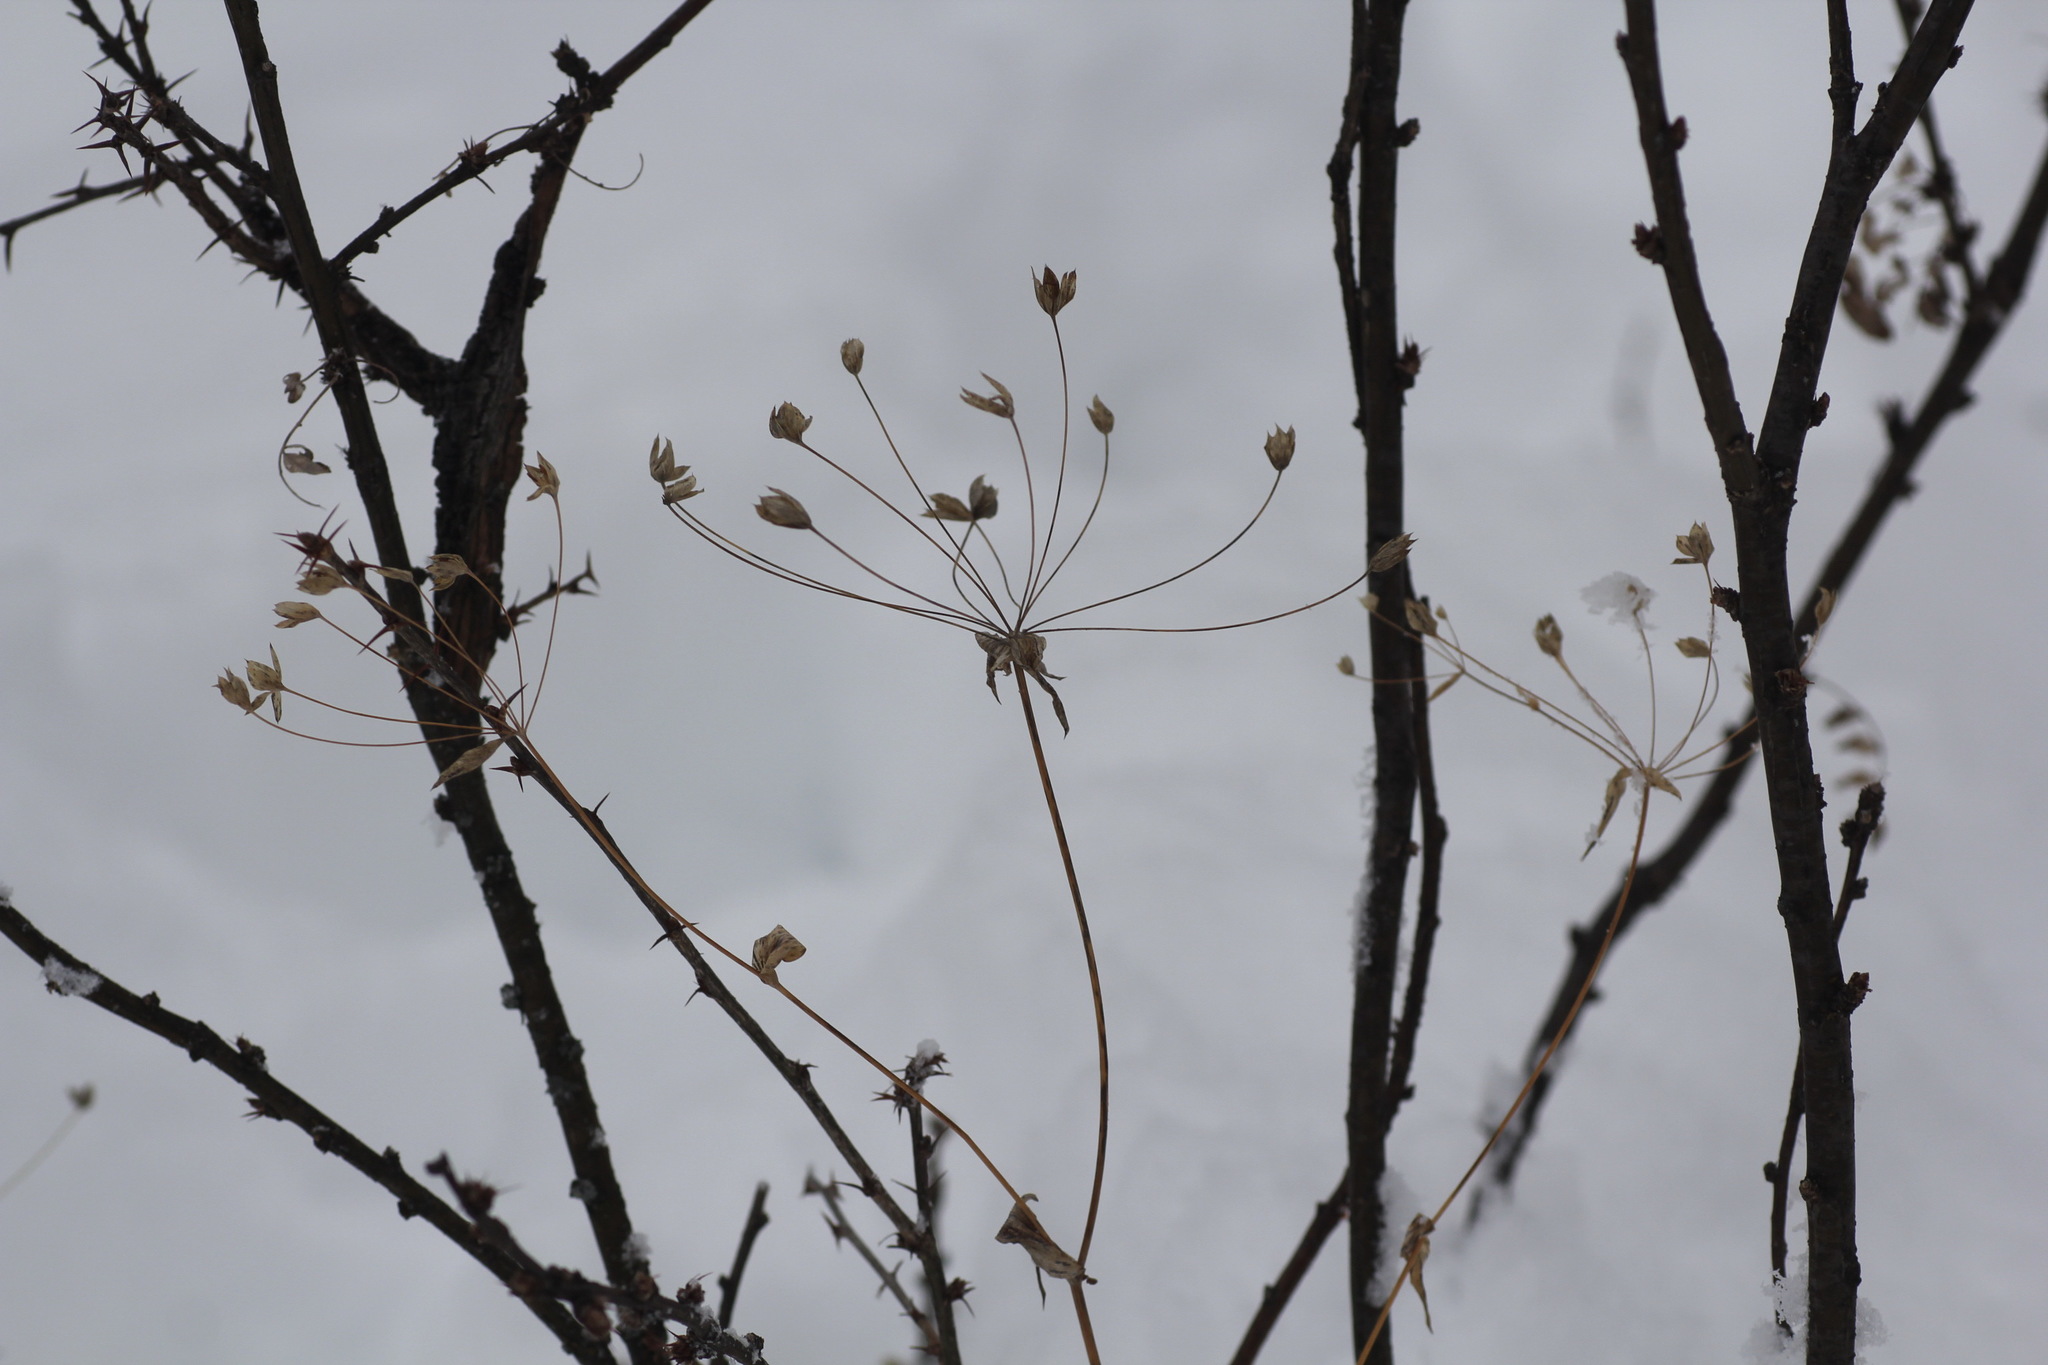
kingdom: Plantae
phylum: Tracheophyta
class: Magnoliopsida
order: Apiales
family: Apiaceae
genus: Bupleurum
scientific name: Bupleurum multinerve
